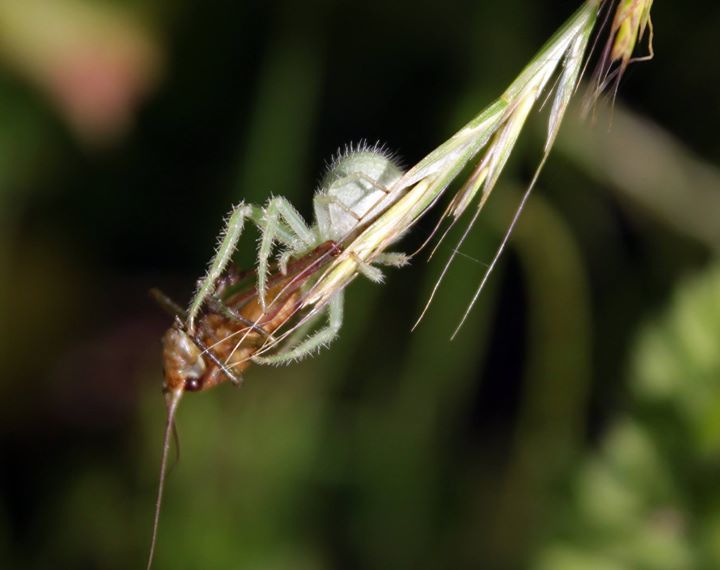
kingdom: Animalia
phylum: Arthropoda
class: Arachnida
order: Araneae
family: Thomisidae
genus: Heriaeus
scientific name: Heriaeus hirtus
